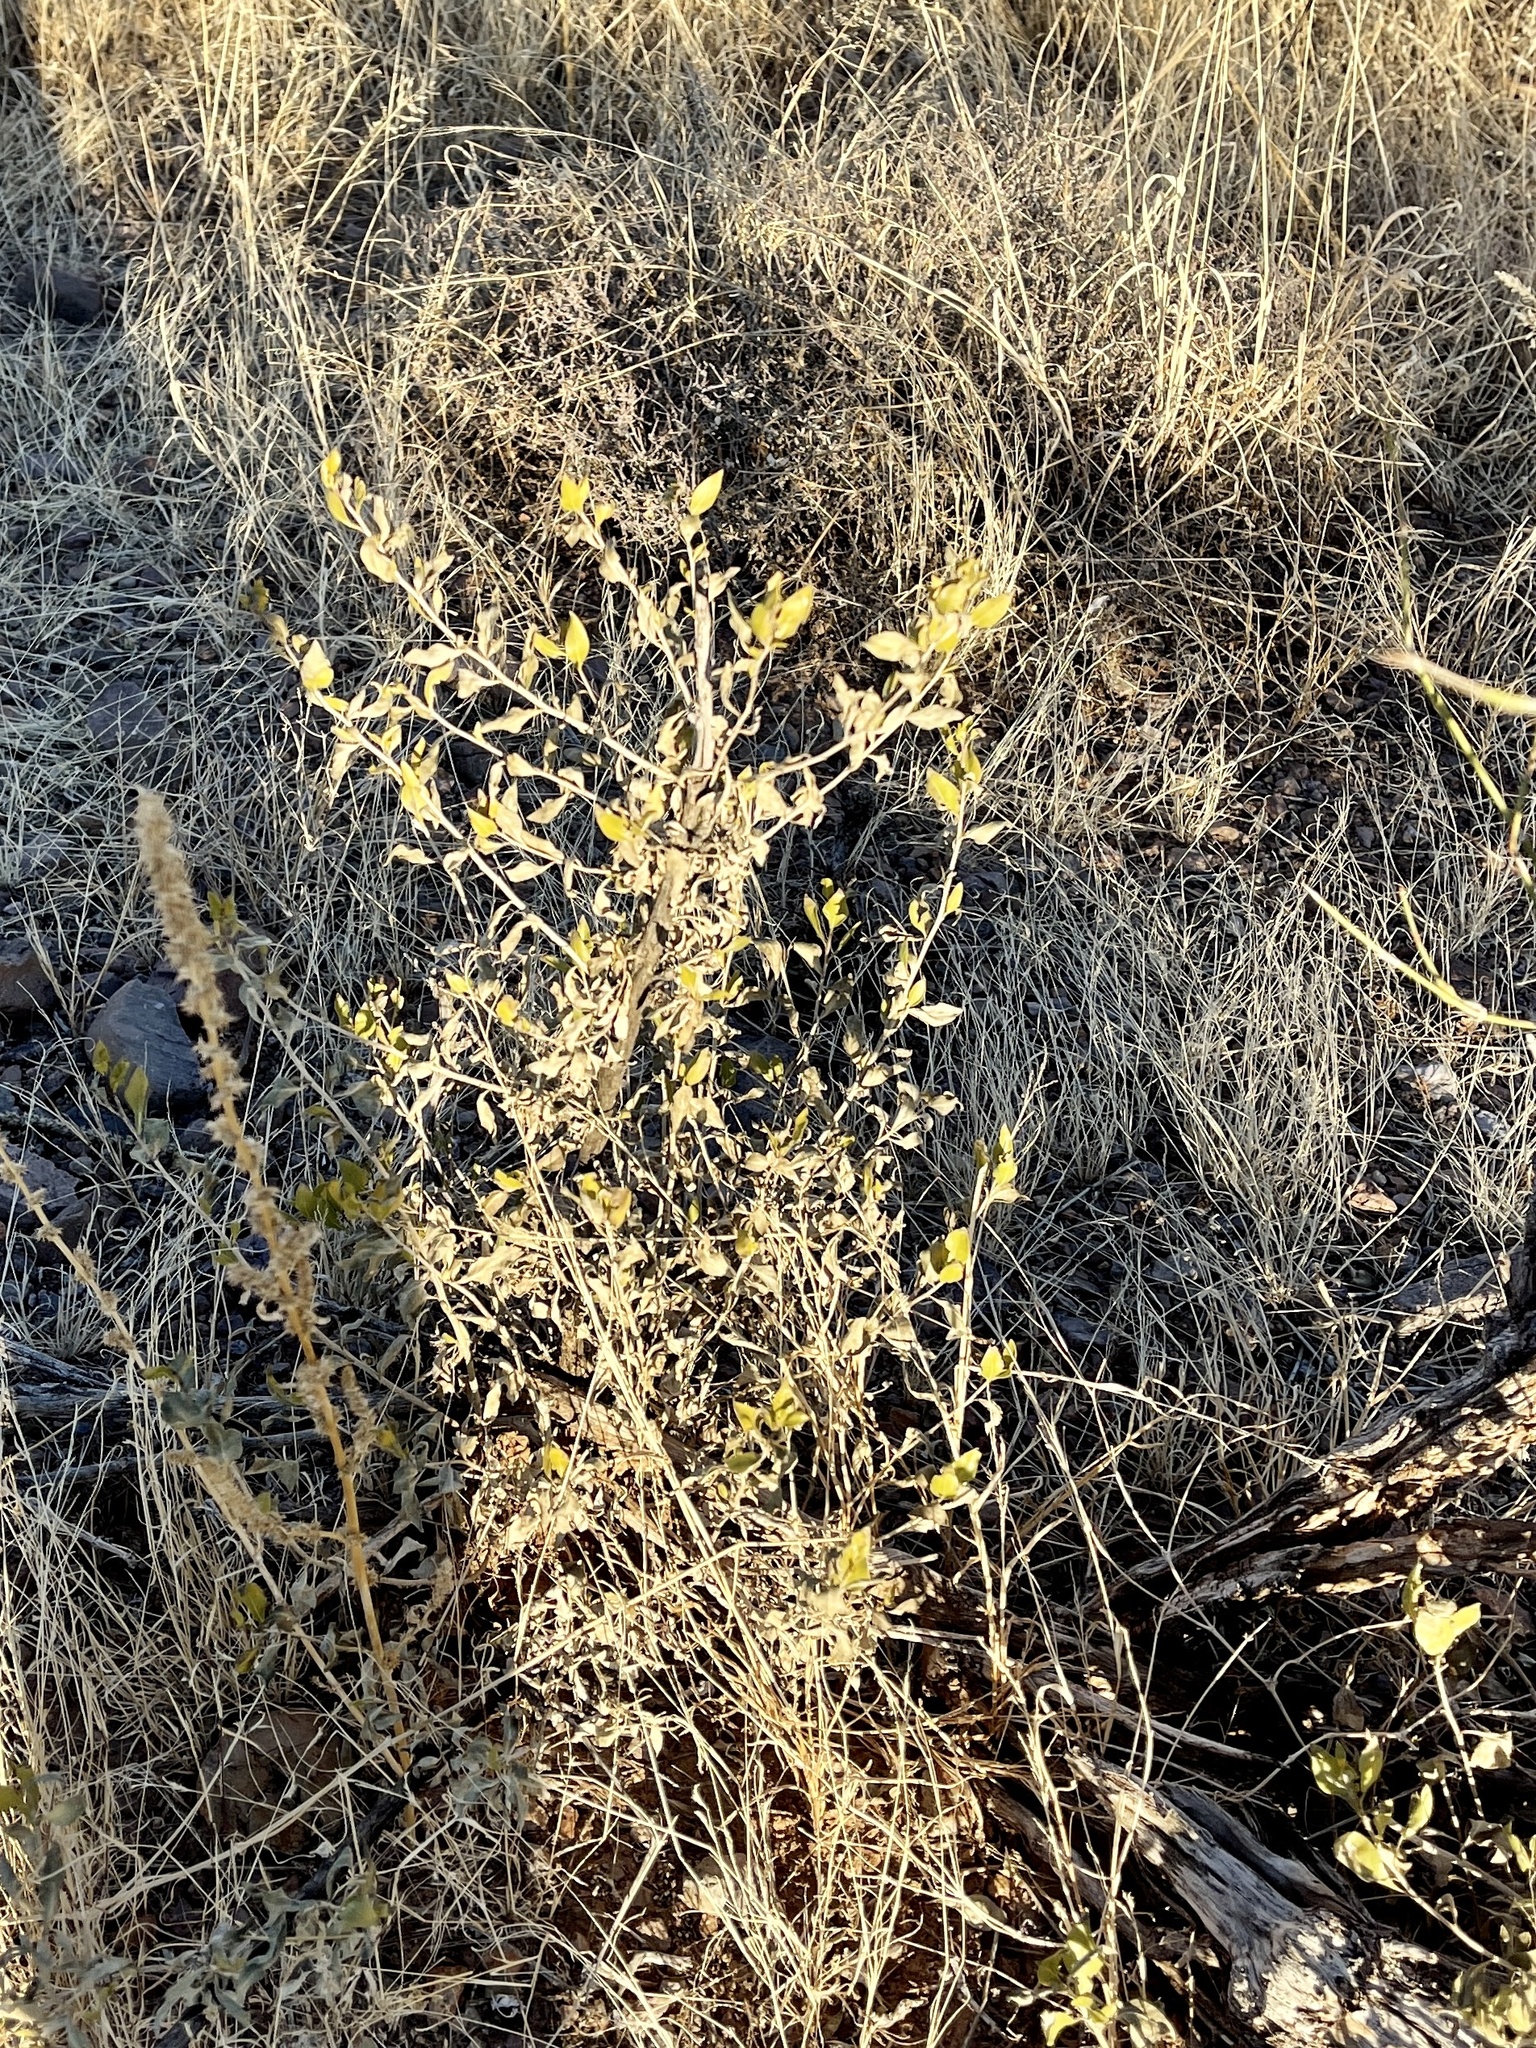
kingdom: Plantae
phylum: Tracheophyta
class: Magnoliopsida
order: Asterales
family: Asteraceae
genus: Flourensia
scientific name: Flourensia cernua
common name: Varnishbush
